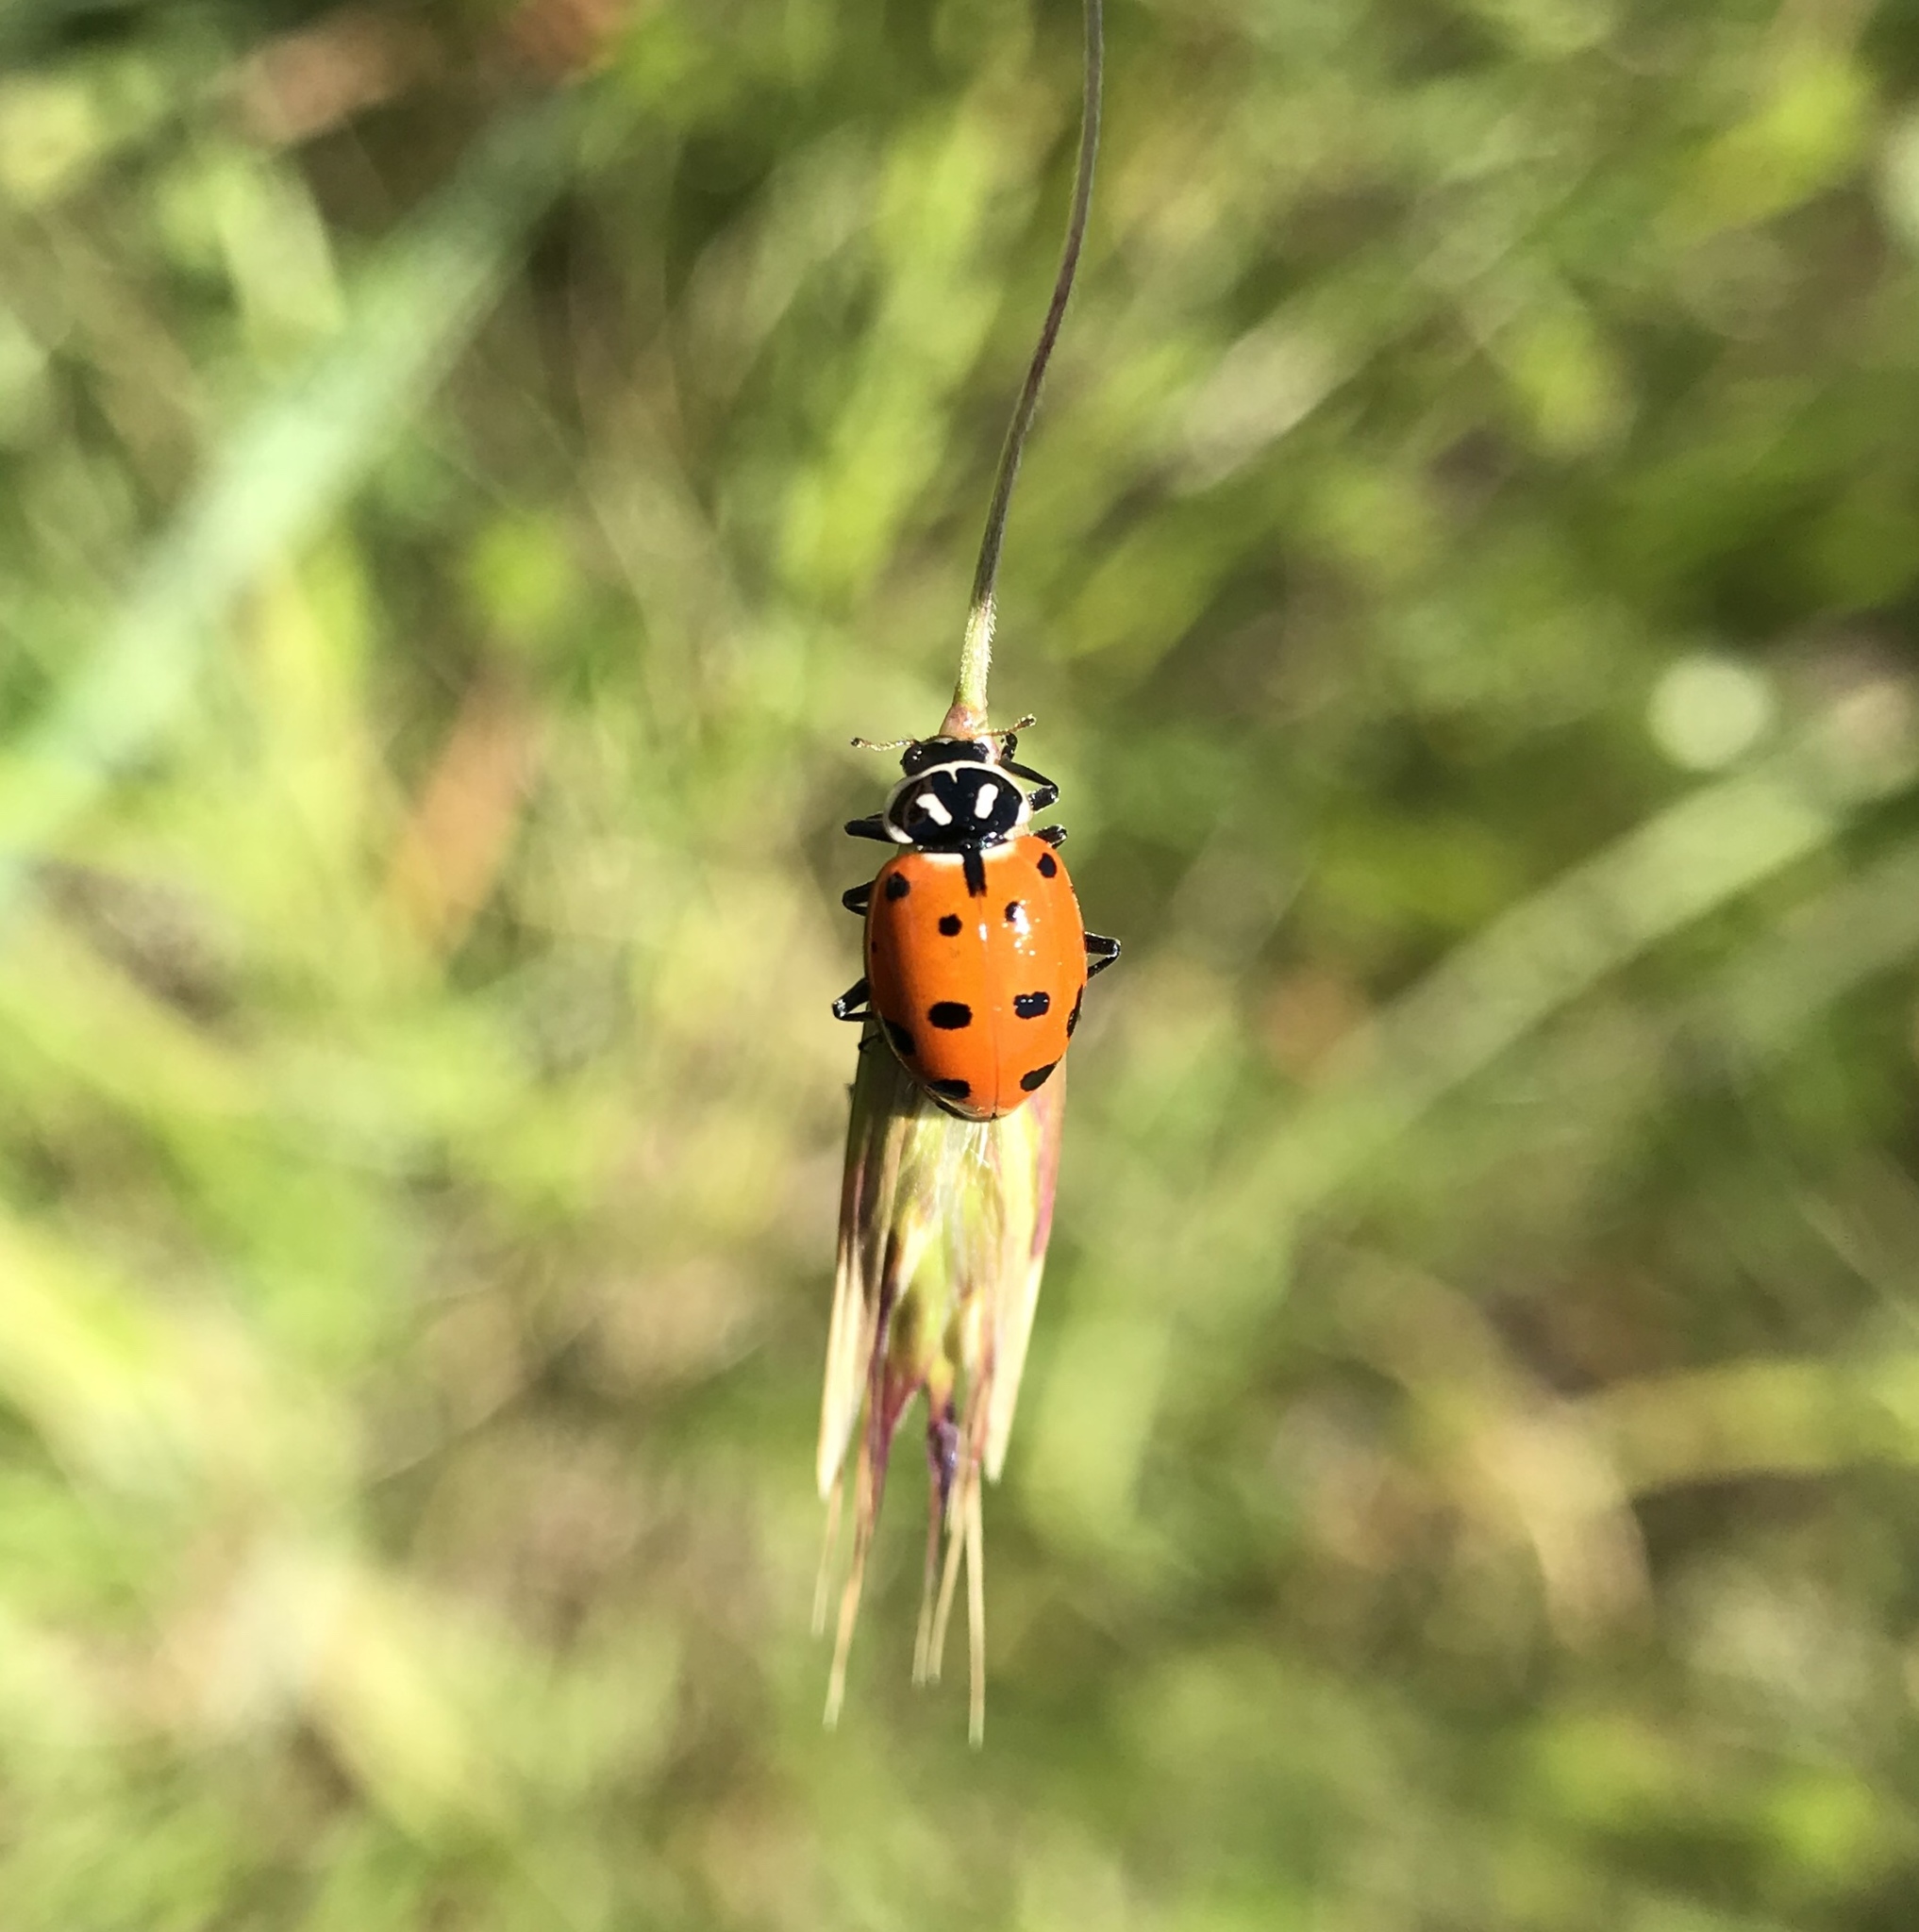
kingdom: Animalia
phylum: Arthropoda
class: Insecta
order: Coleoptera
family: Coccinellidae
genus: Hippodamia
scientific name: Hippodamia convergens
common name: Convergent lady beetle
